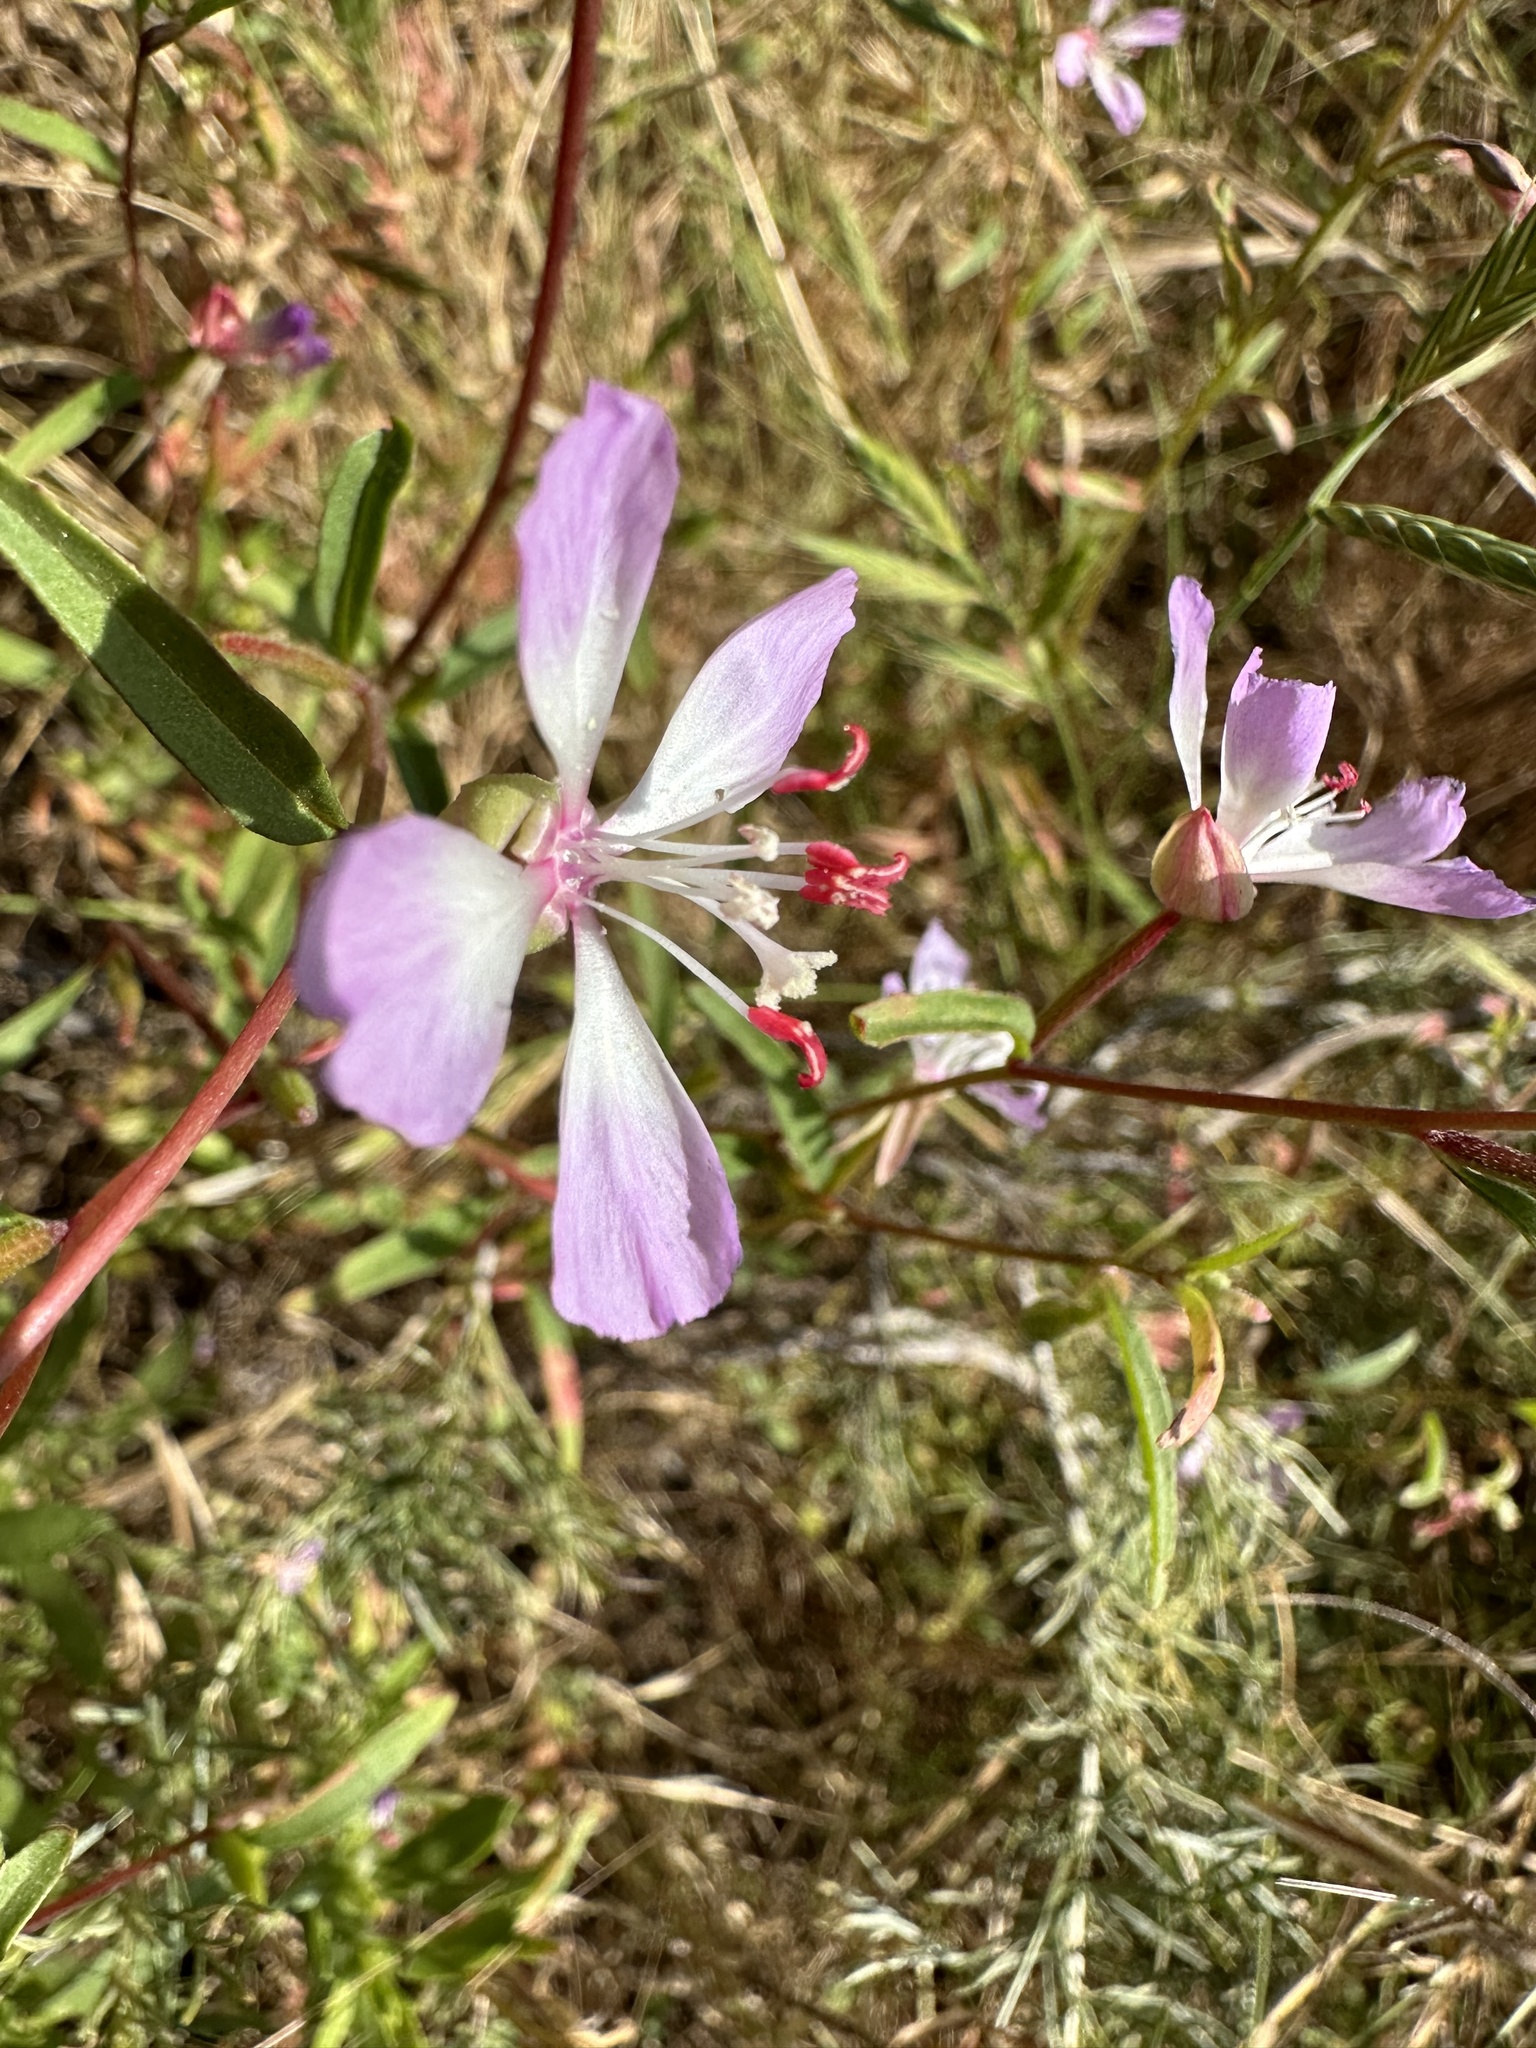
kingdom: Plantae
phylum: Tracheophyta
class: Magnoliopsida
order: Myrtales
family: Onagraceae
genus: Clarkia
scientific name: Clarkia delicata
